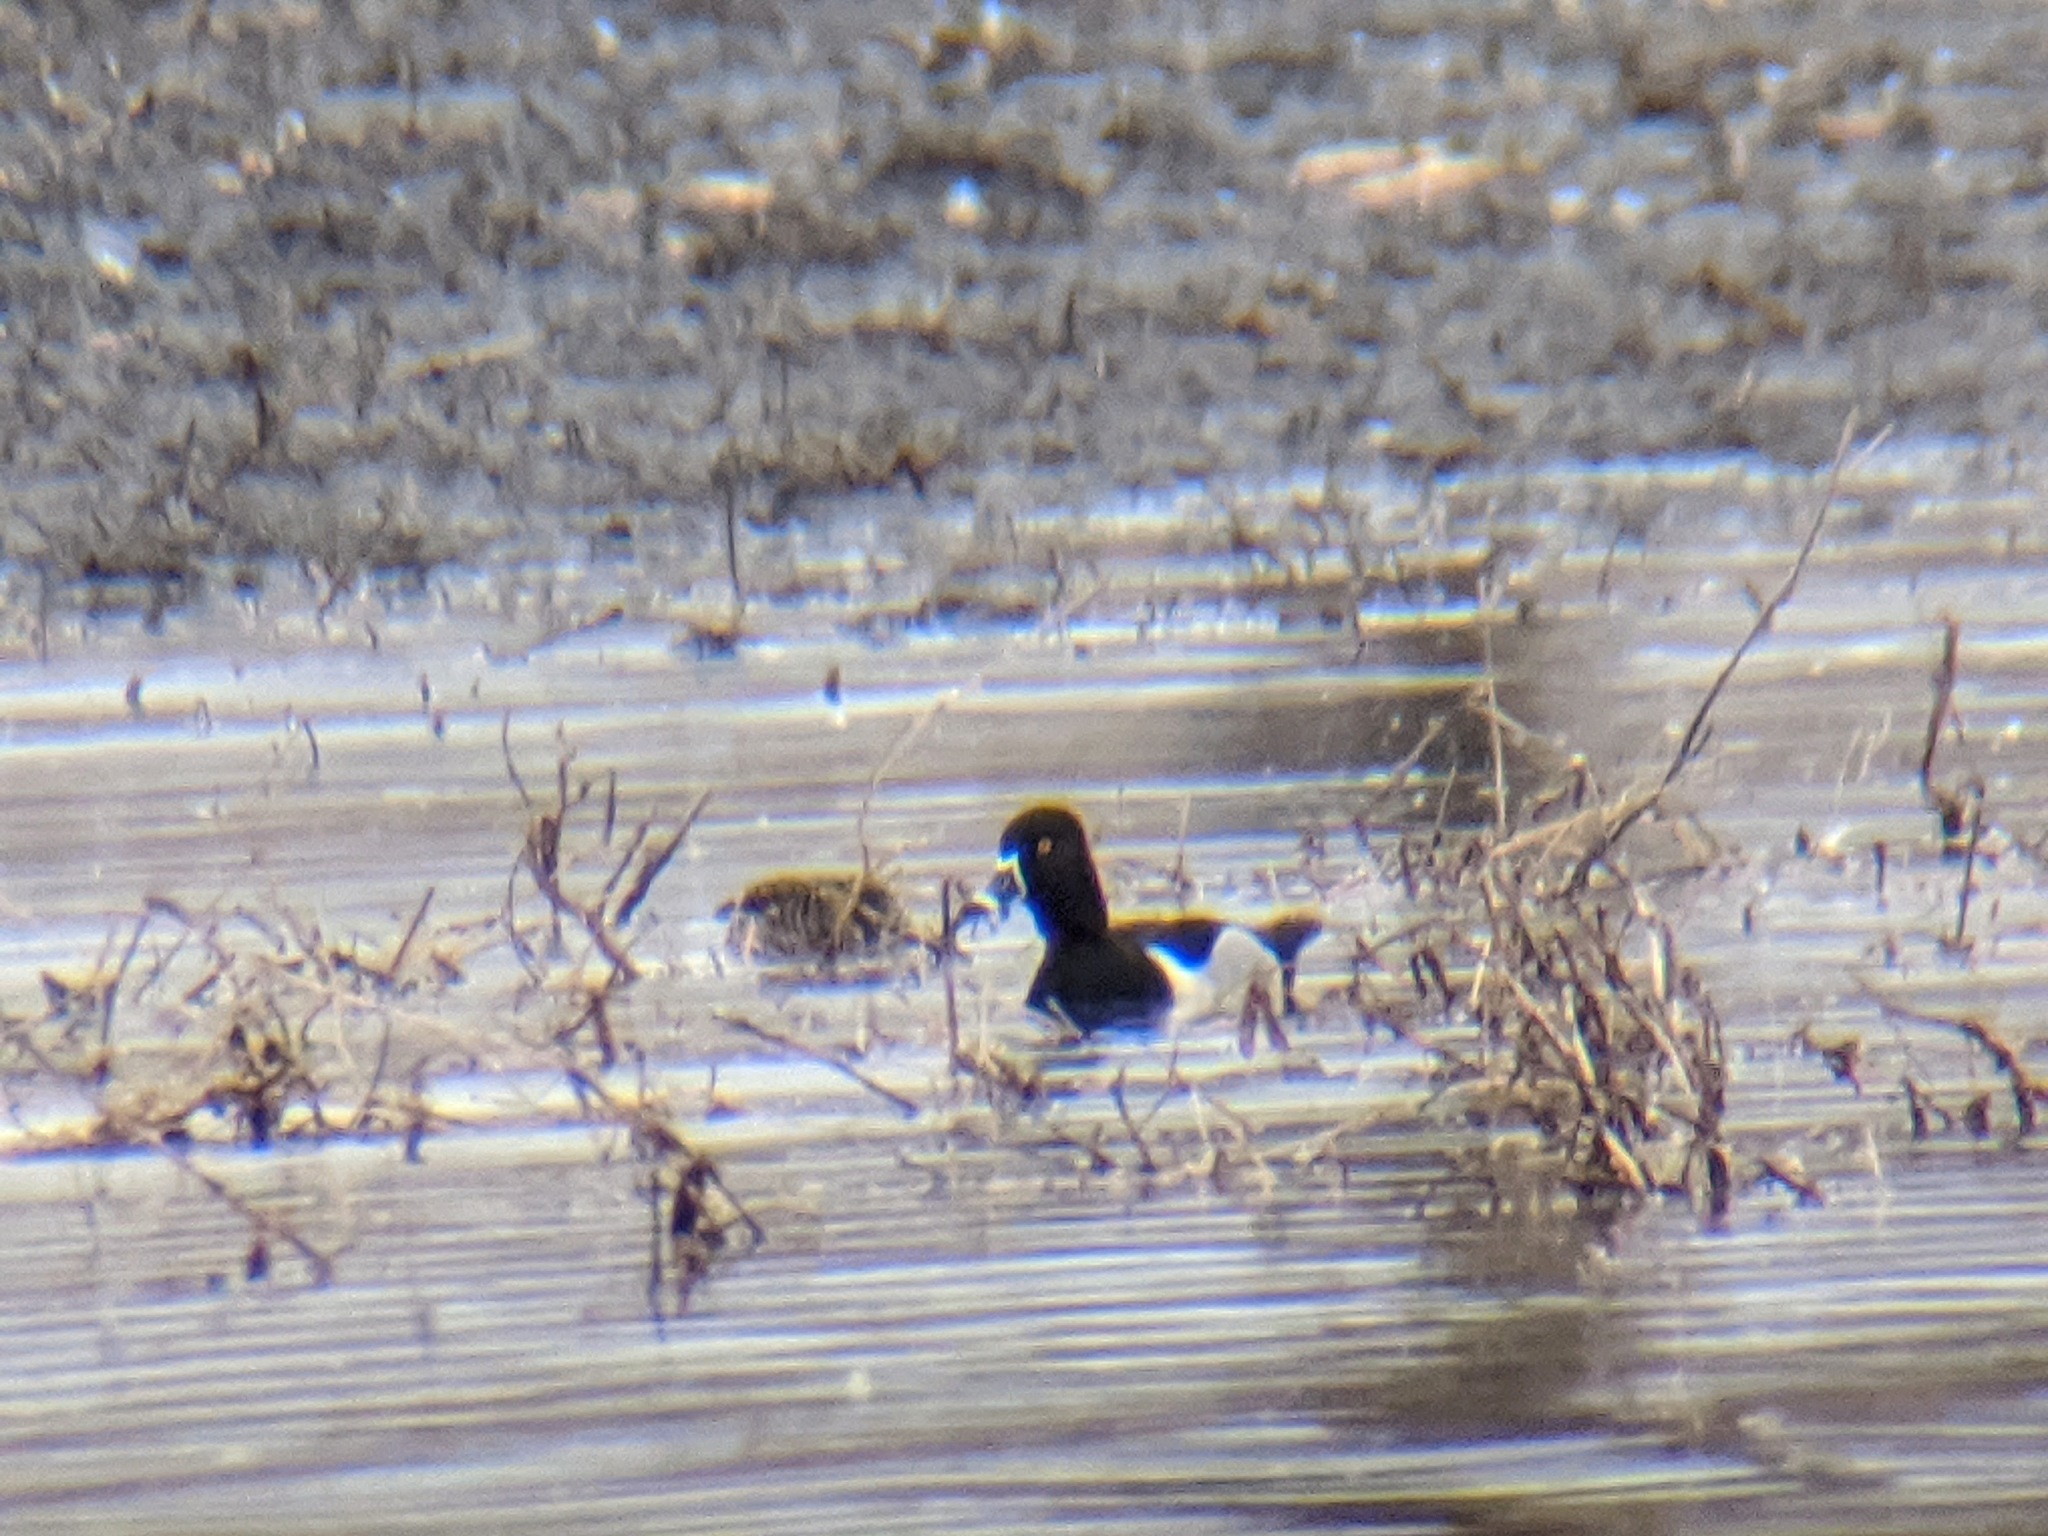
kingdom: Animalia
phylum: Chordata
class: Aves
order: Anseriformes
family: Anatidae
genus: Aythya
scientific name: Aythya collaris
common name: Ring-necked duck
